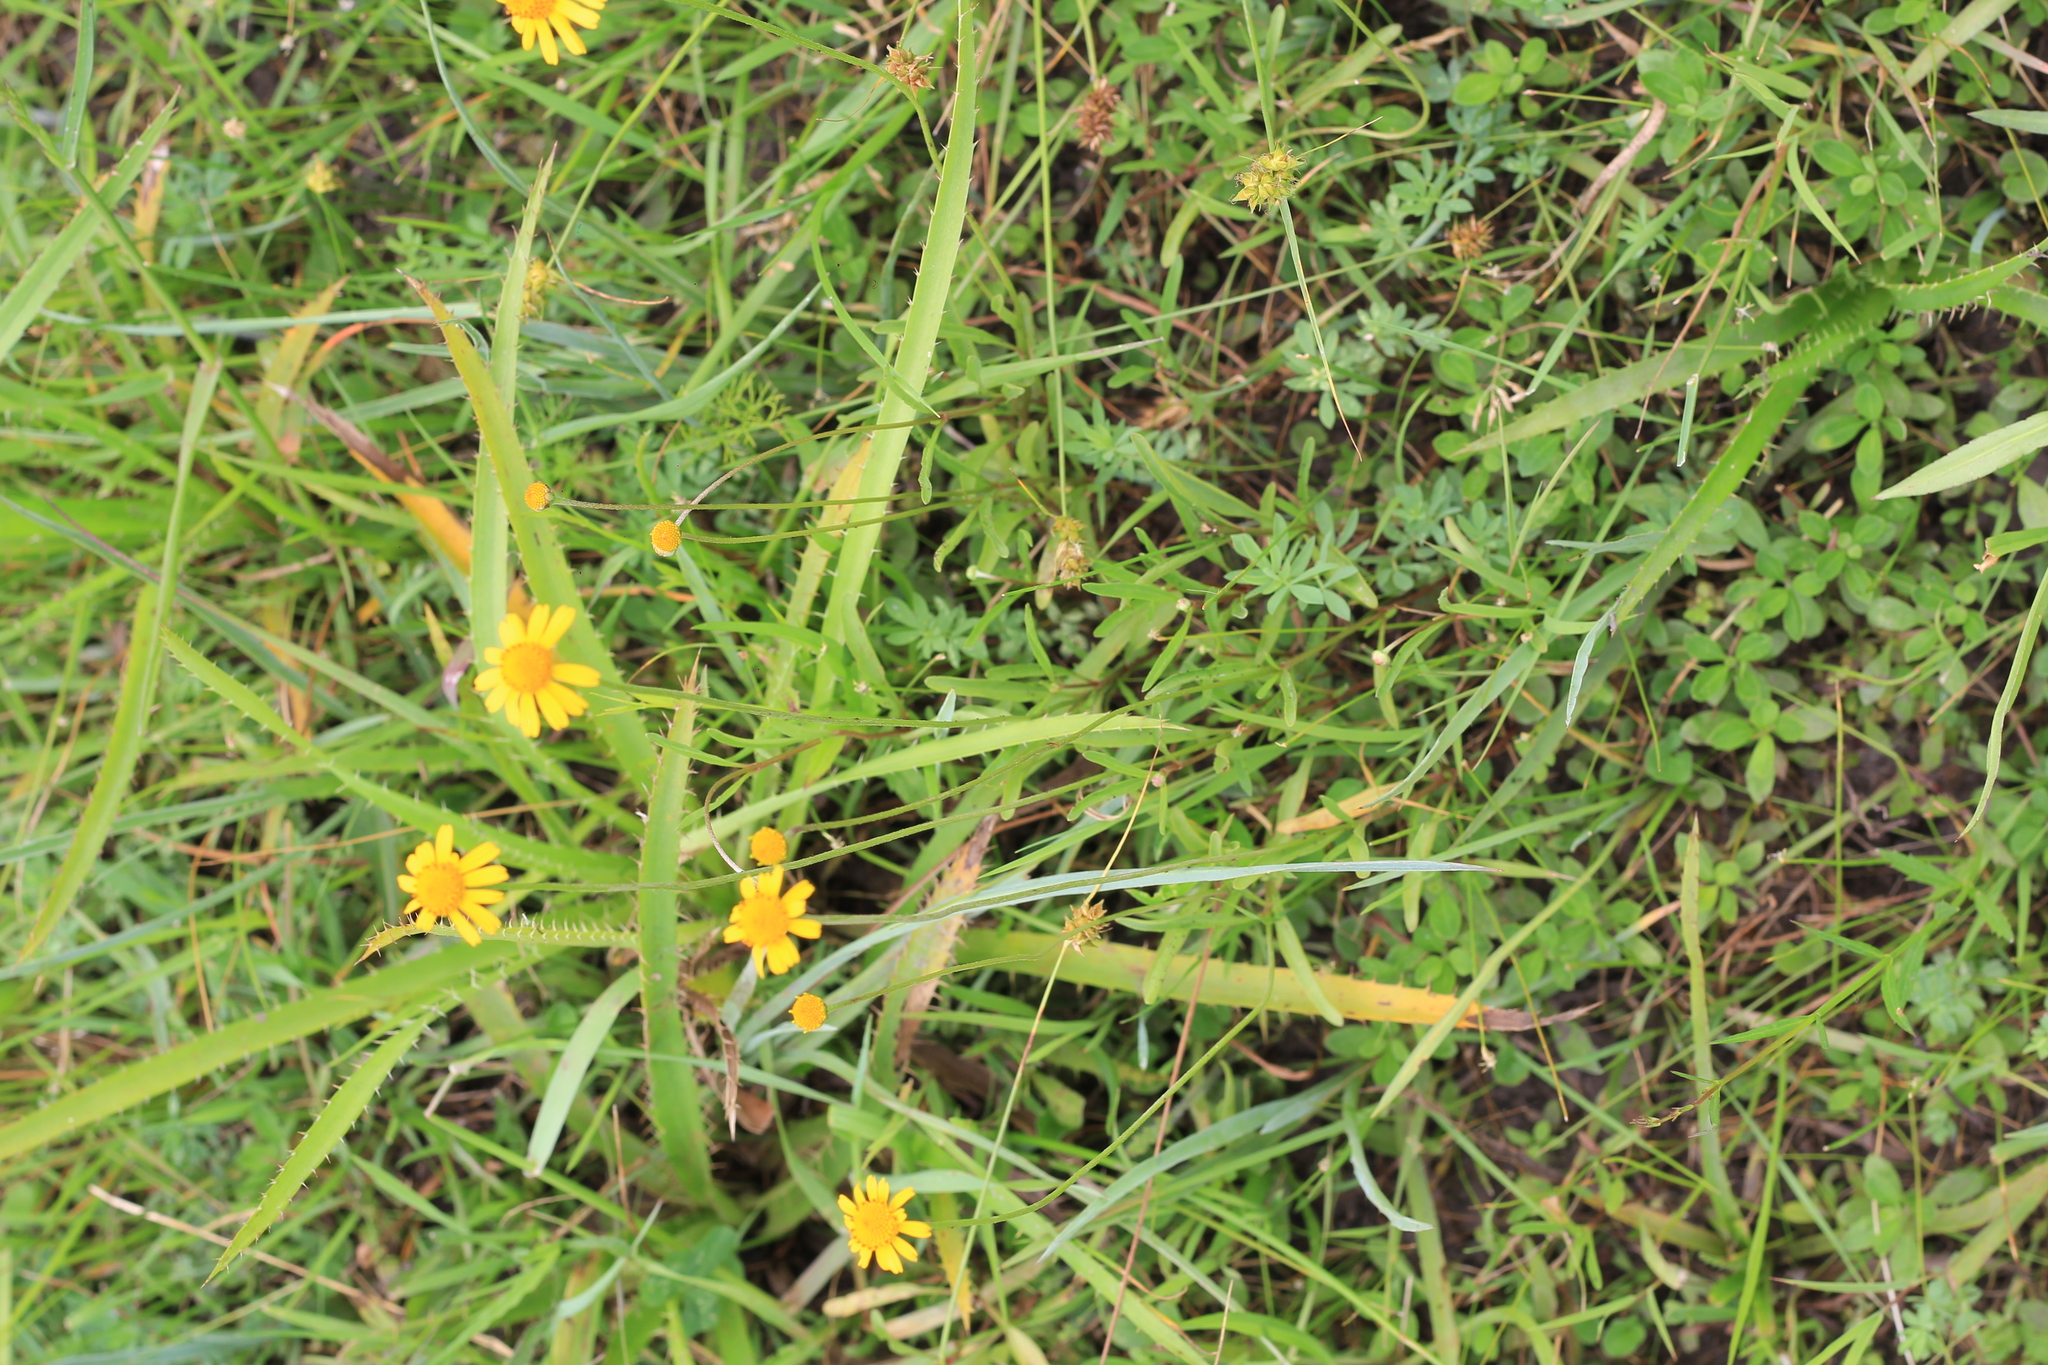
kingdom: Plantae
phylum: Tracheophyta
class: Magnoliopsida
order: Asterales
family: Asteraceae
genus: Acmella
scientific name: Acmella decumbens
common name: Creeping spotflower
